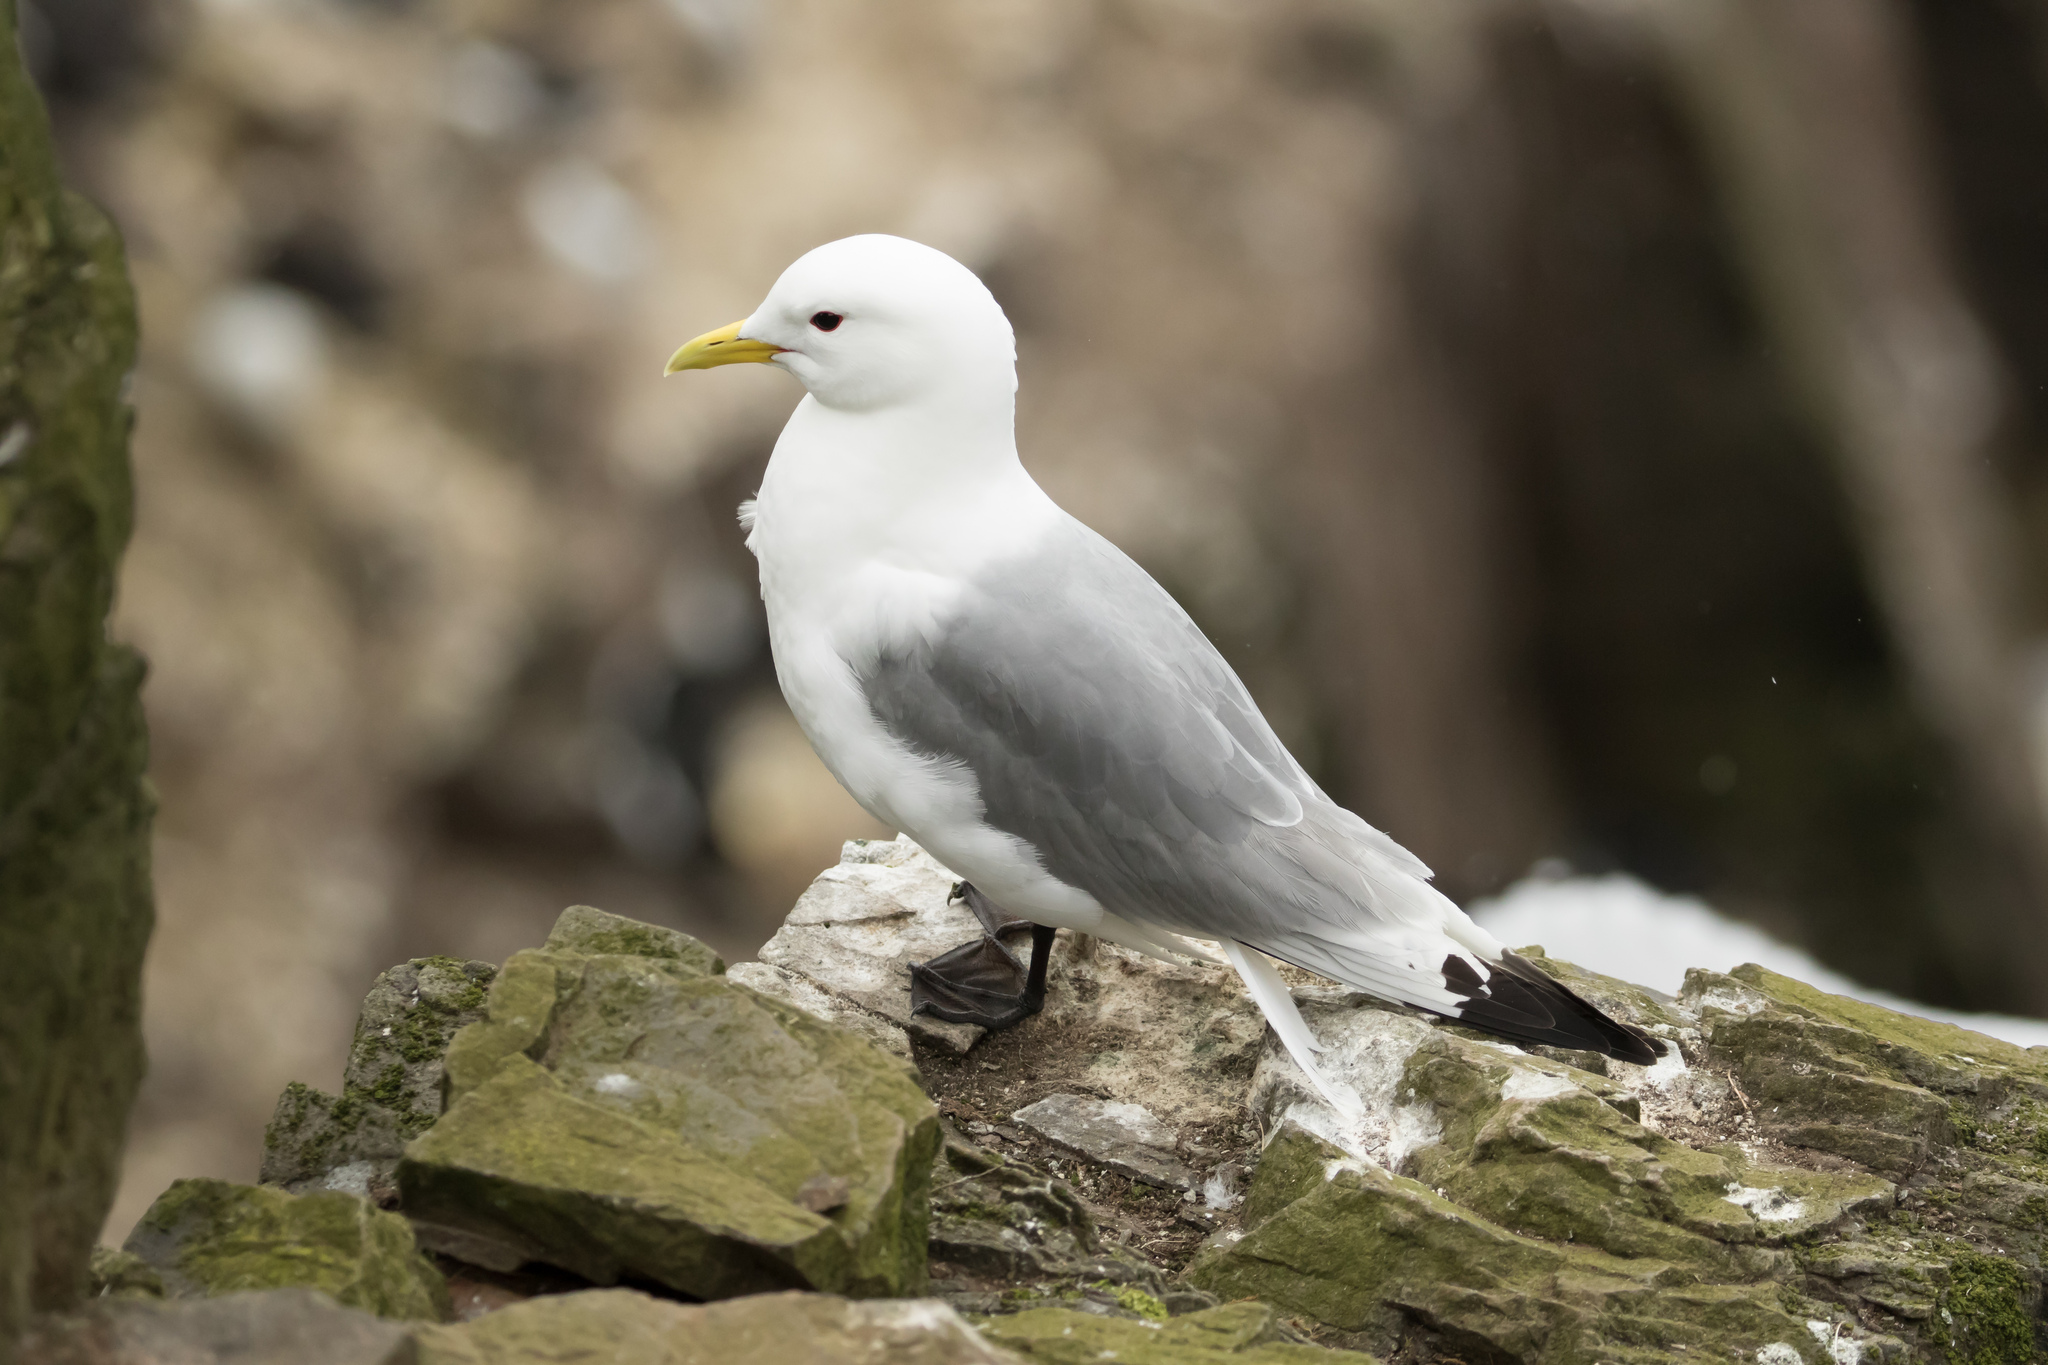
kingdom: Animalia
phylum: Chordata
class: Aves
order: Charadriiformes
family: Laridae
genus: Rissa
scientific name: Rissa tridactyla
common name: Black-legged kittiwake
